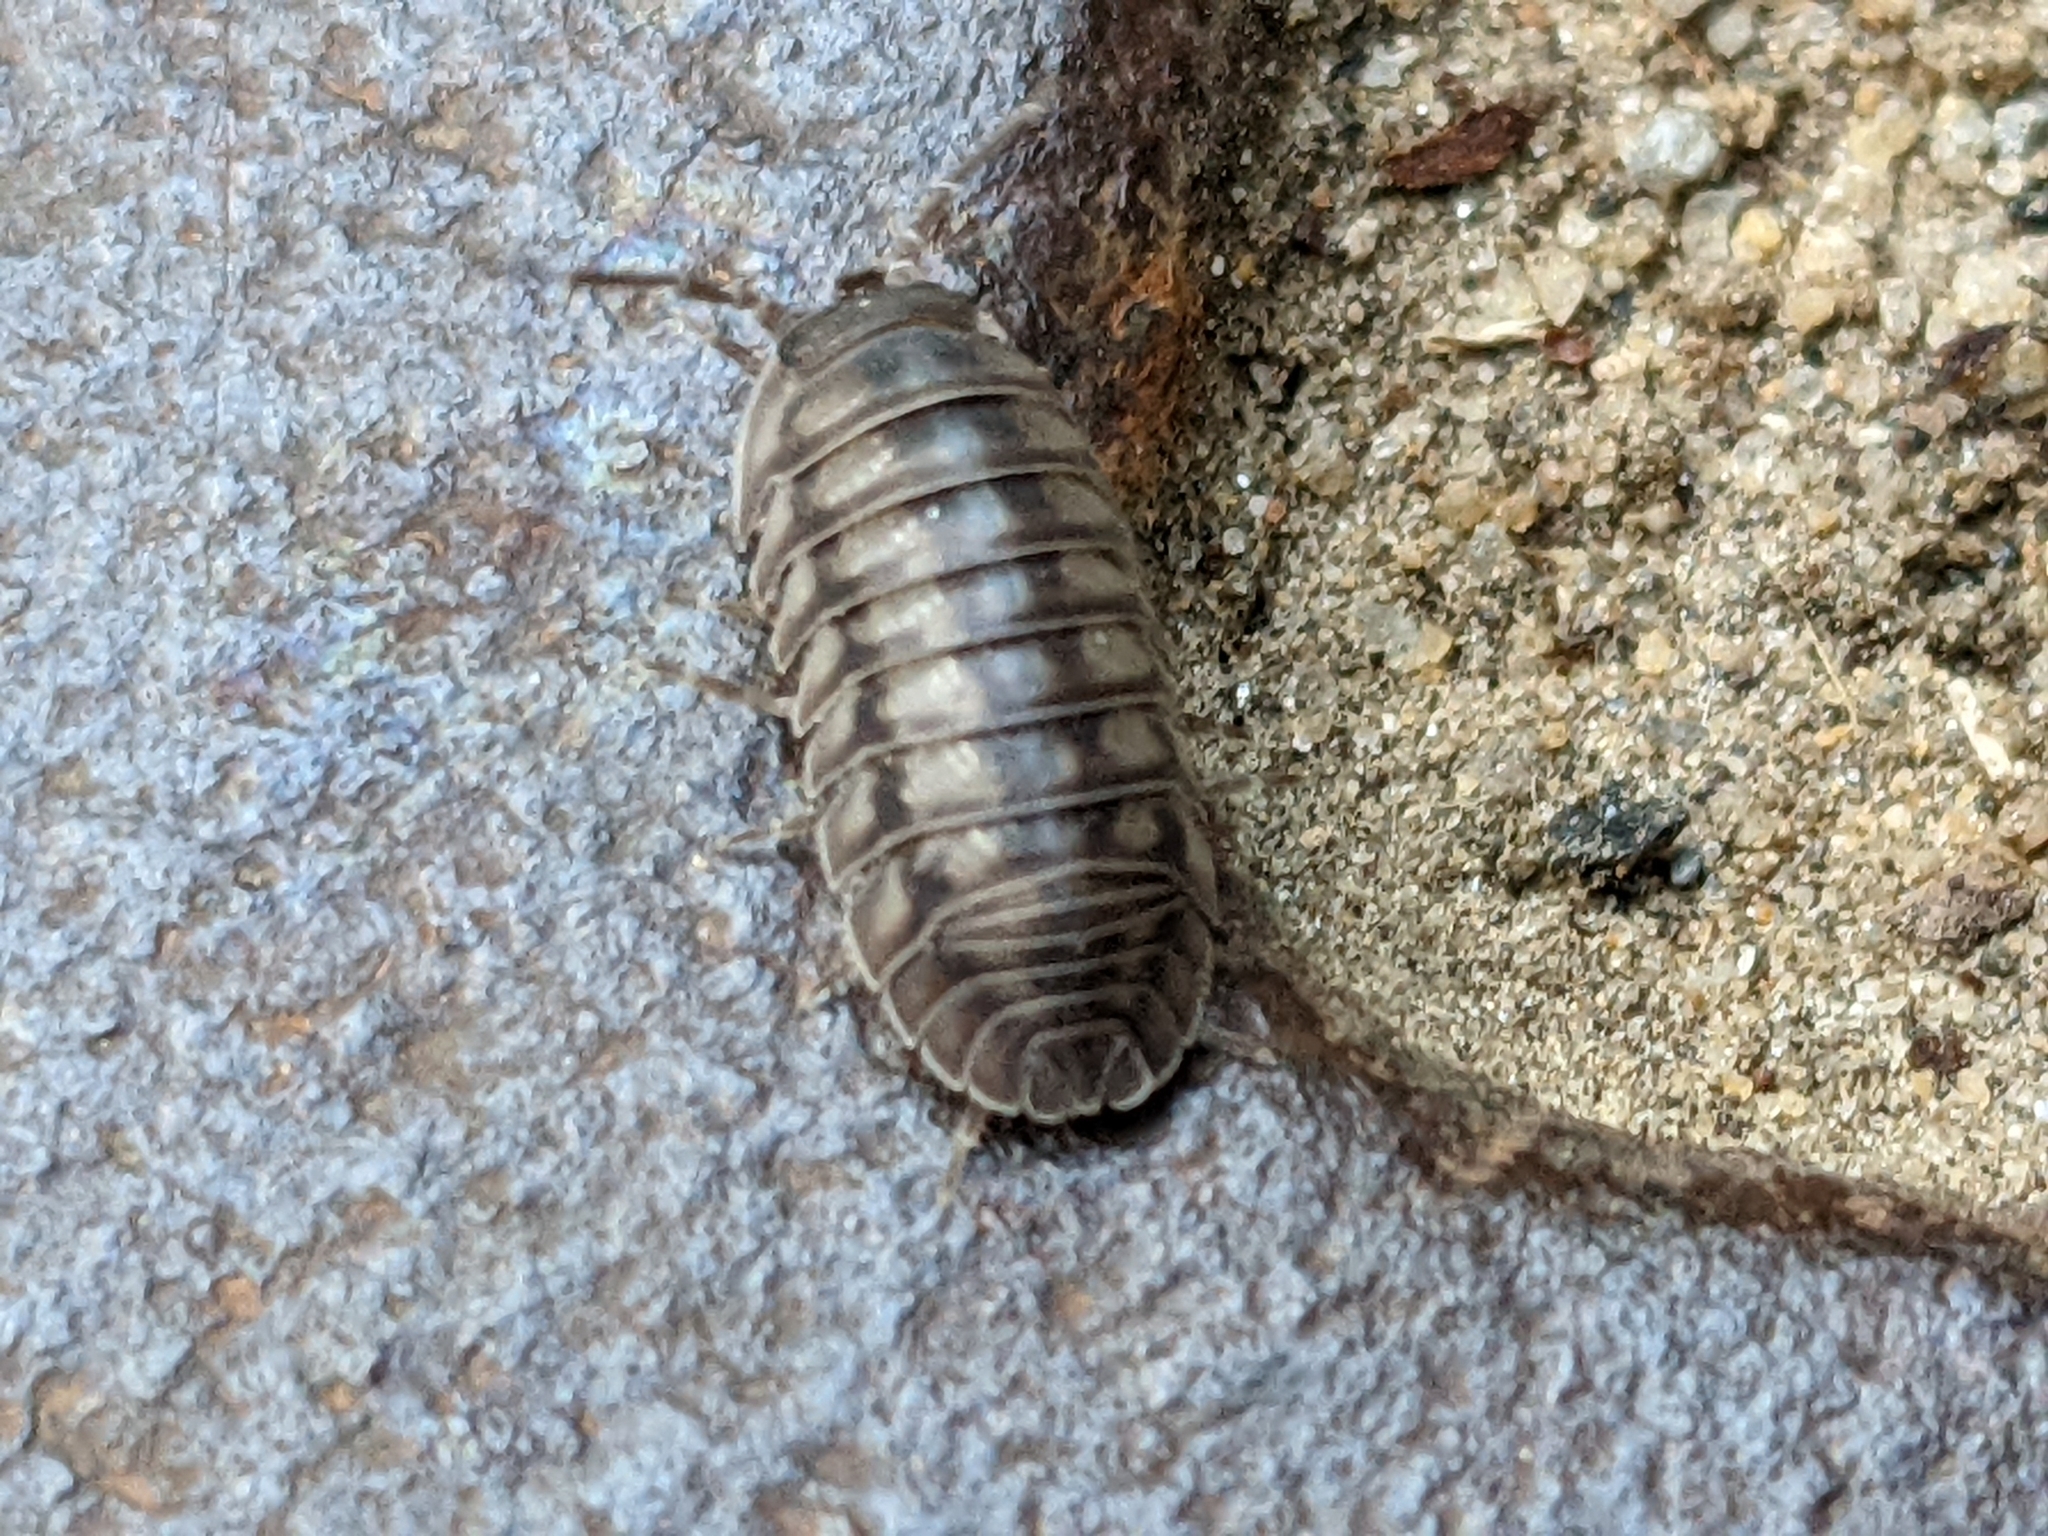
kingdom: Animalia
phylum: Arthropoda
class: Malacostraca
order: Isopoda
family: Armadillidiidae
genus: Armadillidium
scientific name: Armadillidium nasatum
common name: Isopod
